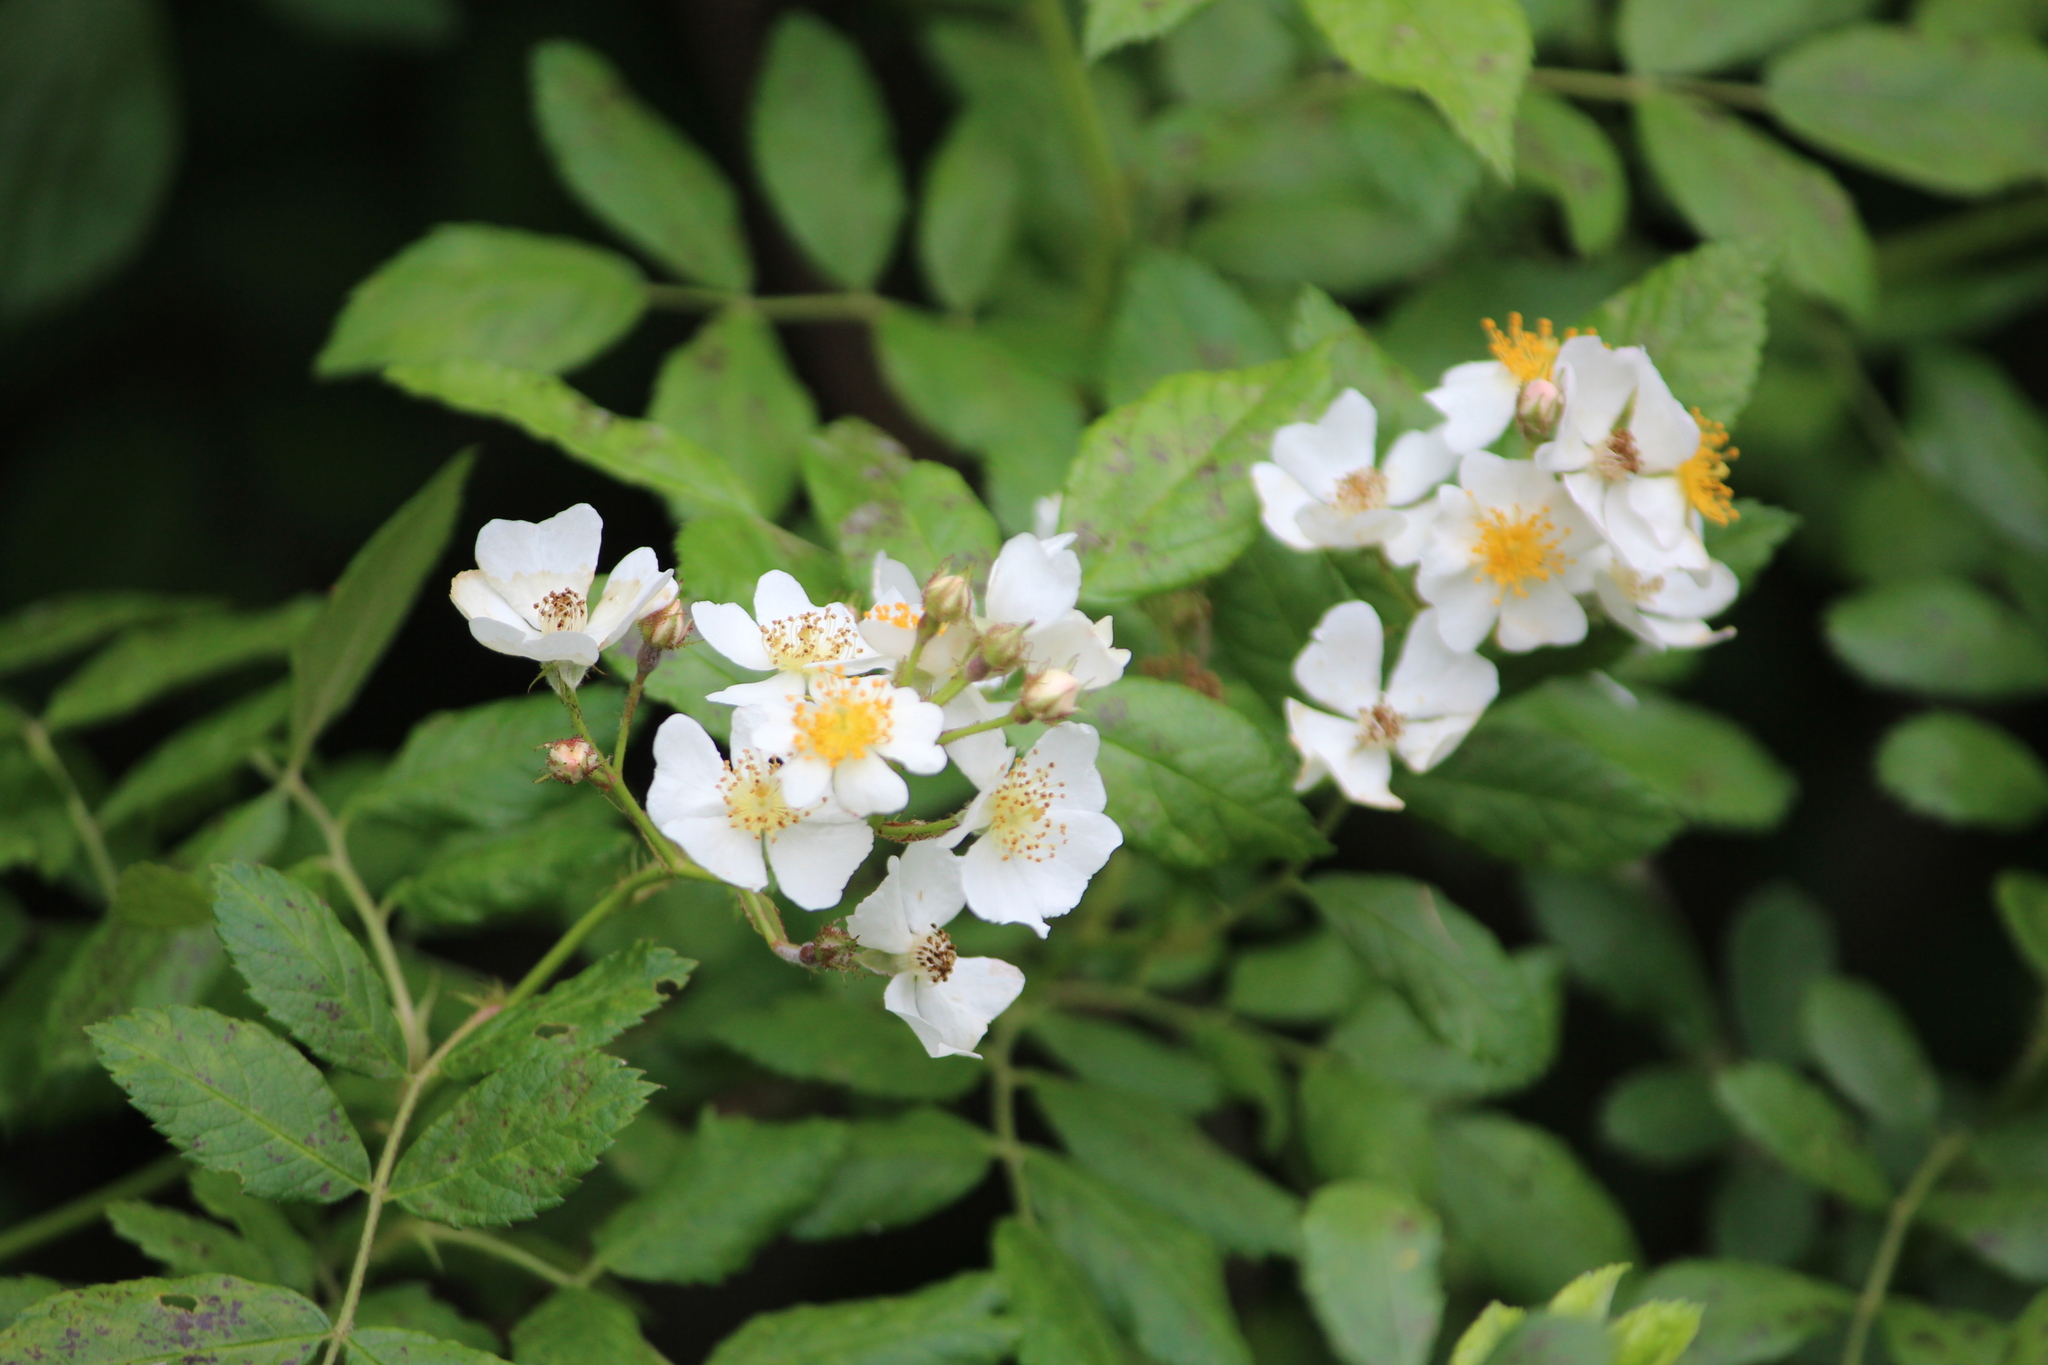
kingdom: Plantae
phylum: Tracheophyta
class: Magnoliopsida
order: Rosales
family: Rosaceae
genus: Rosa
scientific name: Rosa multiflora
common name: Multiflora rose
